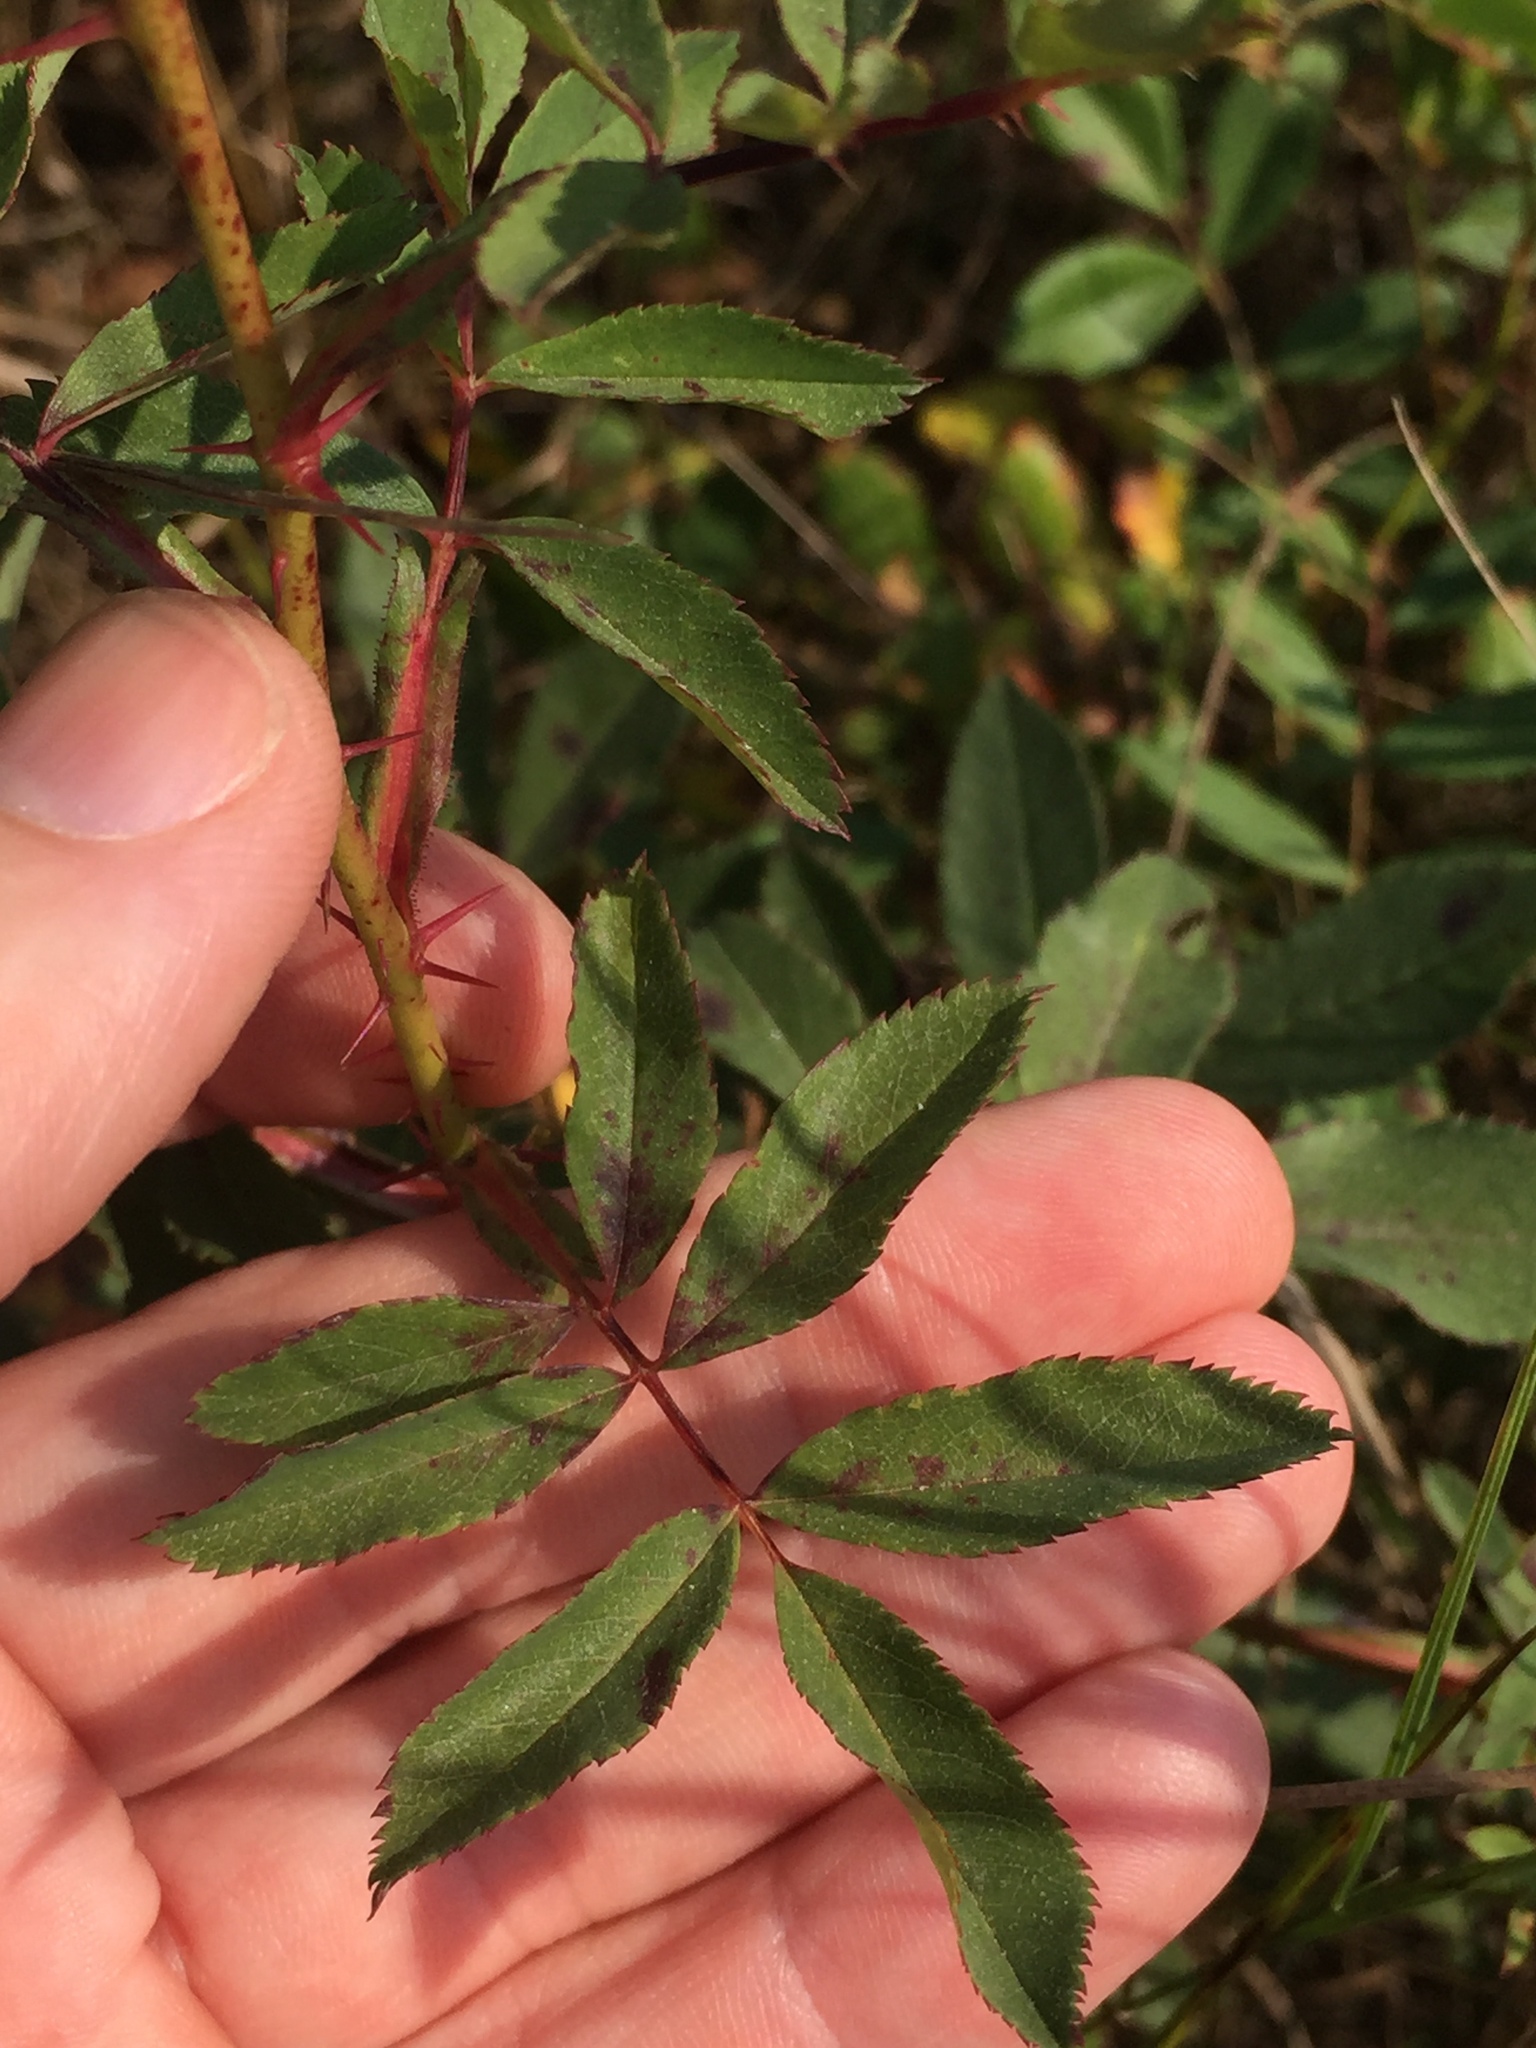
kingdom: Plantae
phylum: Tracheophyta
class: Magnoliopsida
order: Rosales
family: Rosaceae
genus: Rosa
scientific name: Rosa arkansana
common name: Prairie rose
